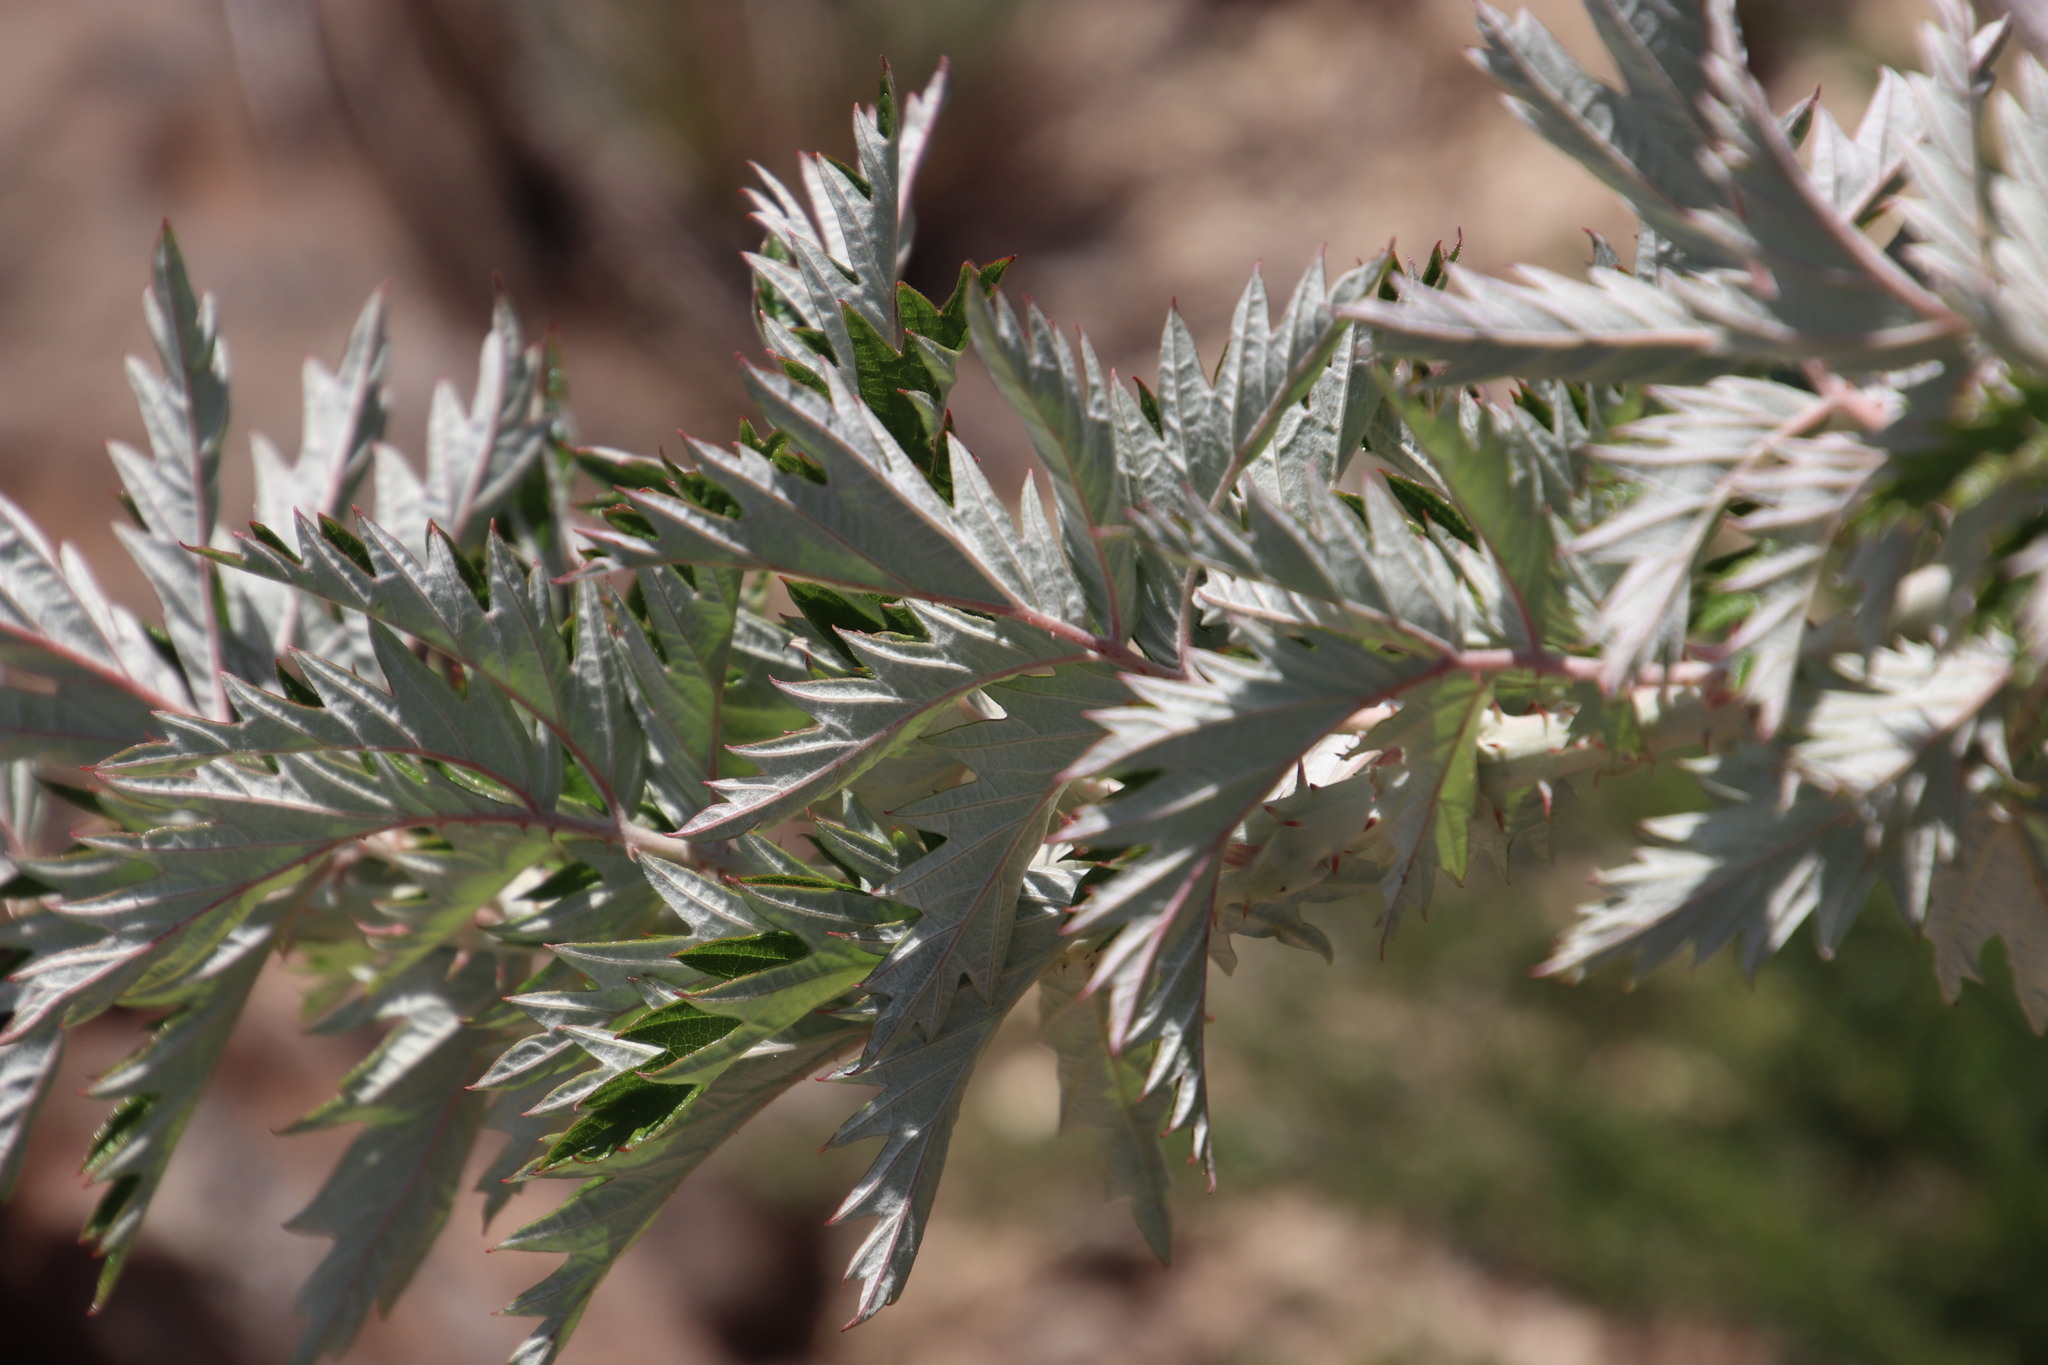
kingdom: Plantae
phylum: Tracheophyta
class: Magnoliopsida
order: Rosales
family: Rosaceae
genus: Rubus
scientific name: Rubus ludwigii
